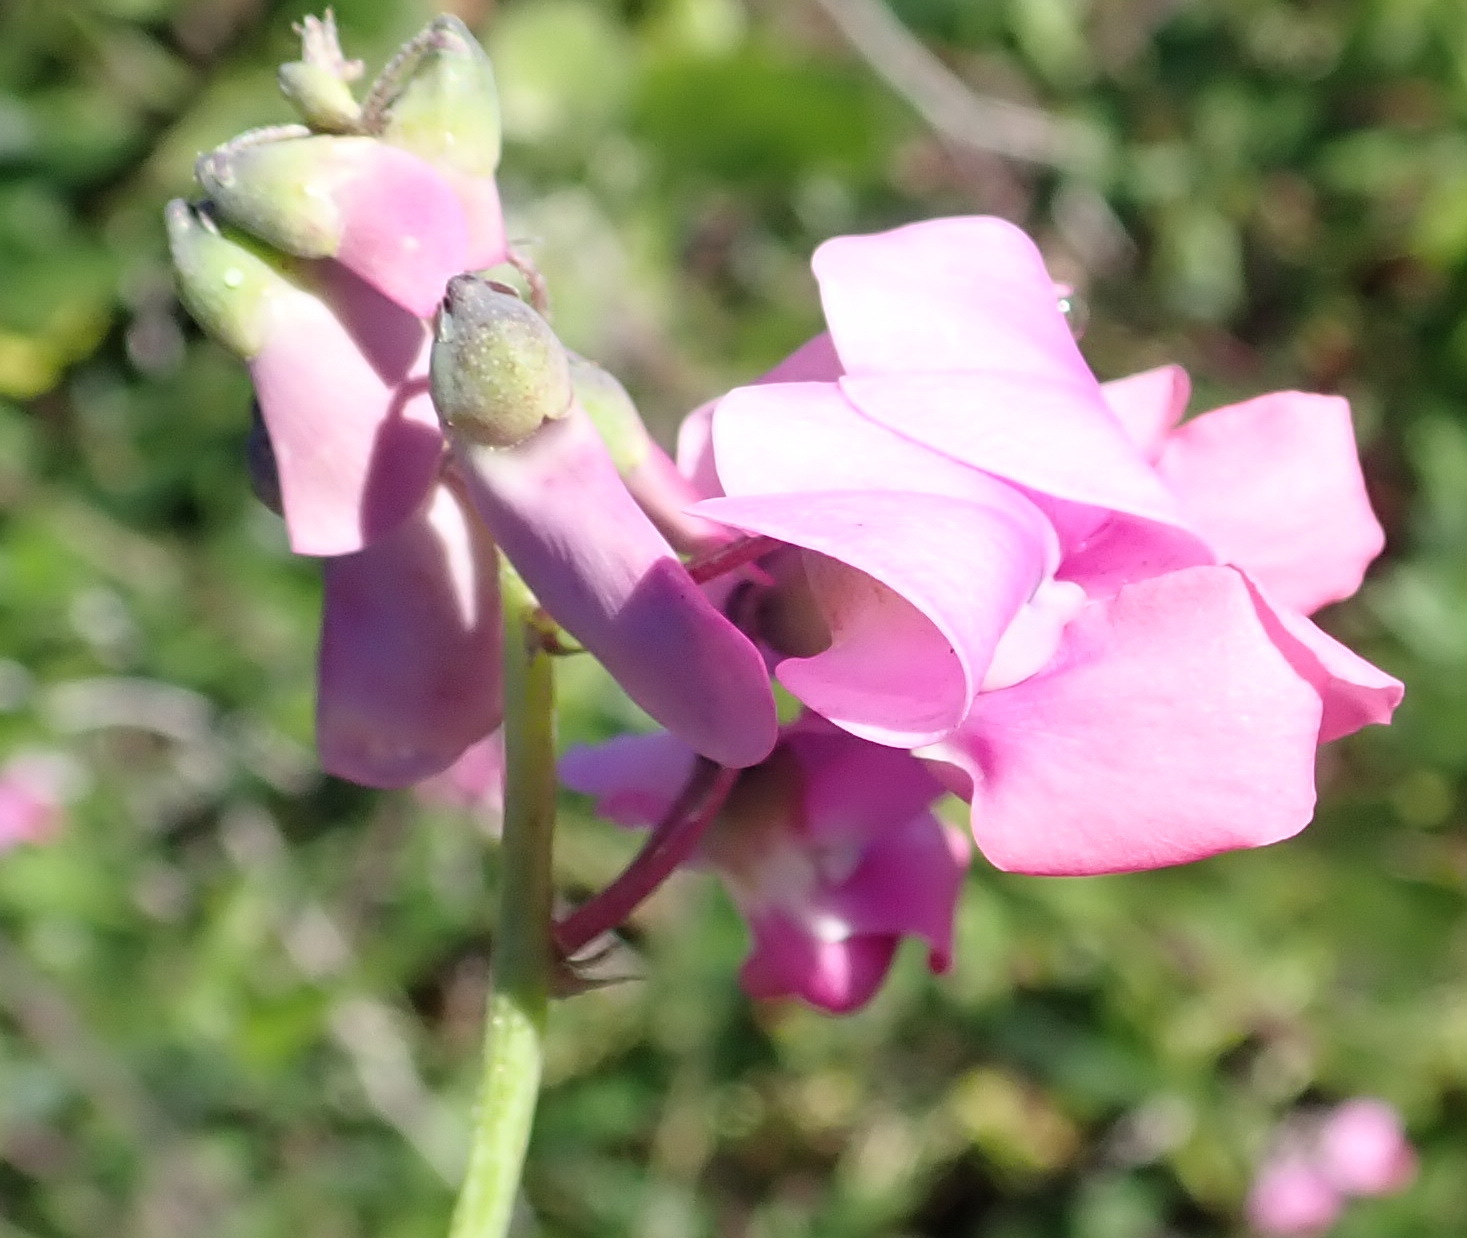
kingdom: Plantae
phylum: Tracheophyta
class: Magnoliopsida
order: Fabales
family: Fabaceae
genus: Dipogon
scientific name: Dipogon lignosus
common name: Okie bean
